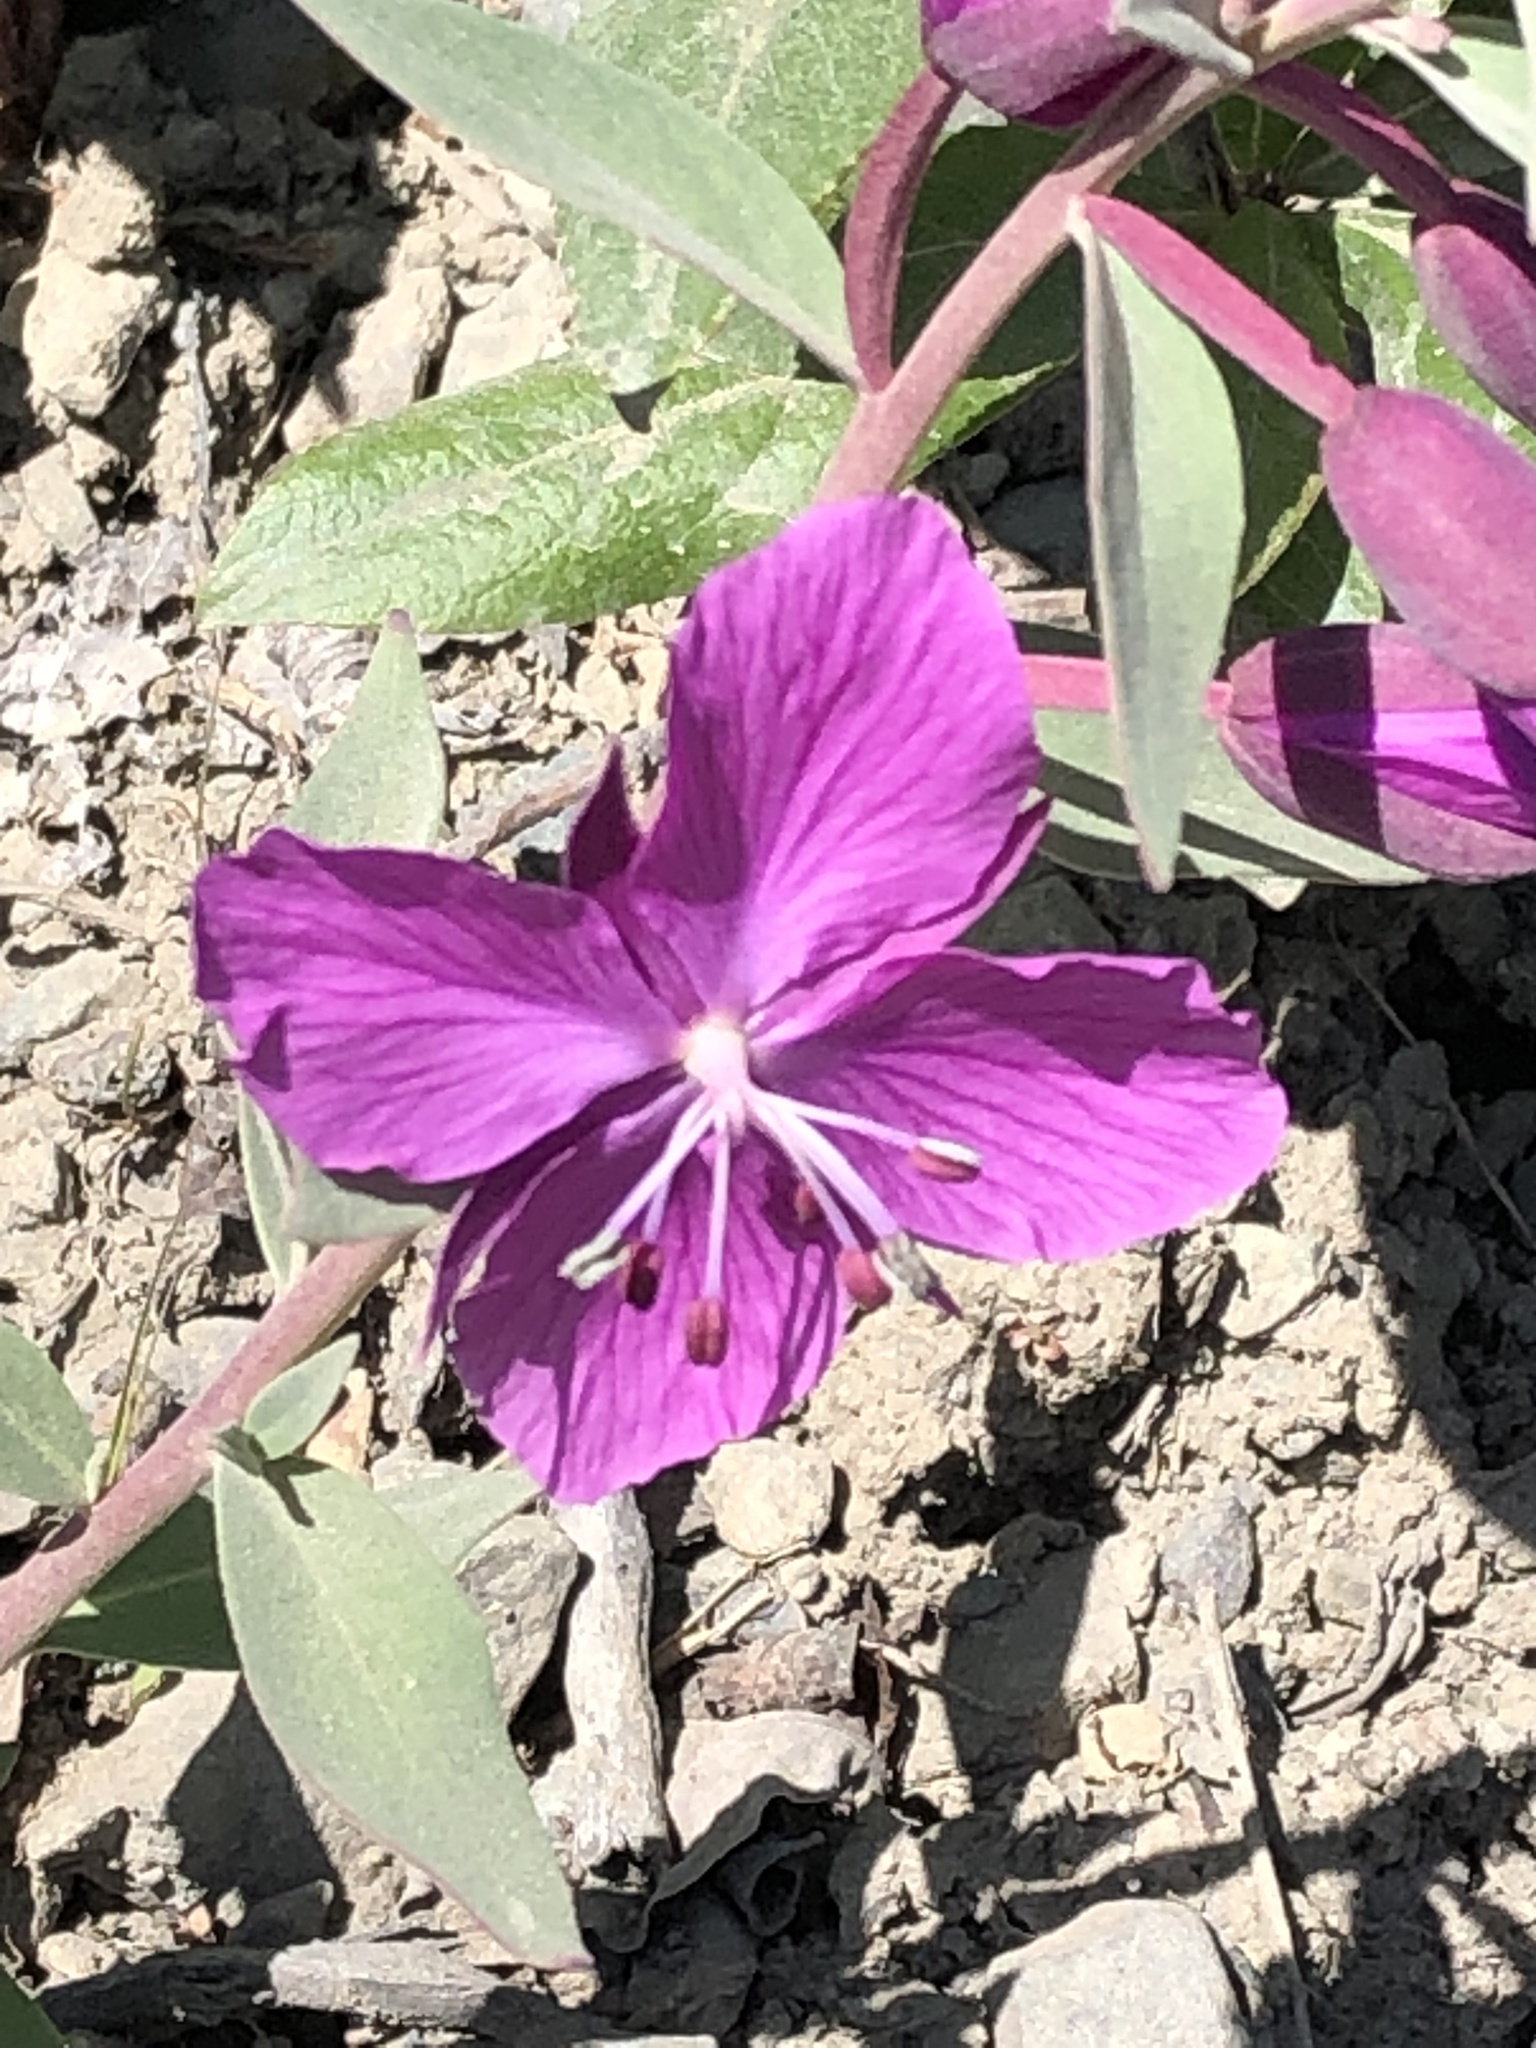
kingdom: Plantae
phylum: Tracheophyta
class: Magnoliopsida
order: Myrtales
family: Onagraceae
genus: Chamaenerion
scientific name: Chamaenerion latifolium
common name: Dwarf fireweed
